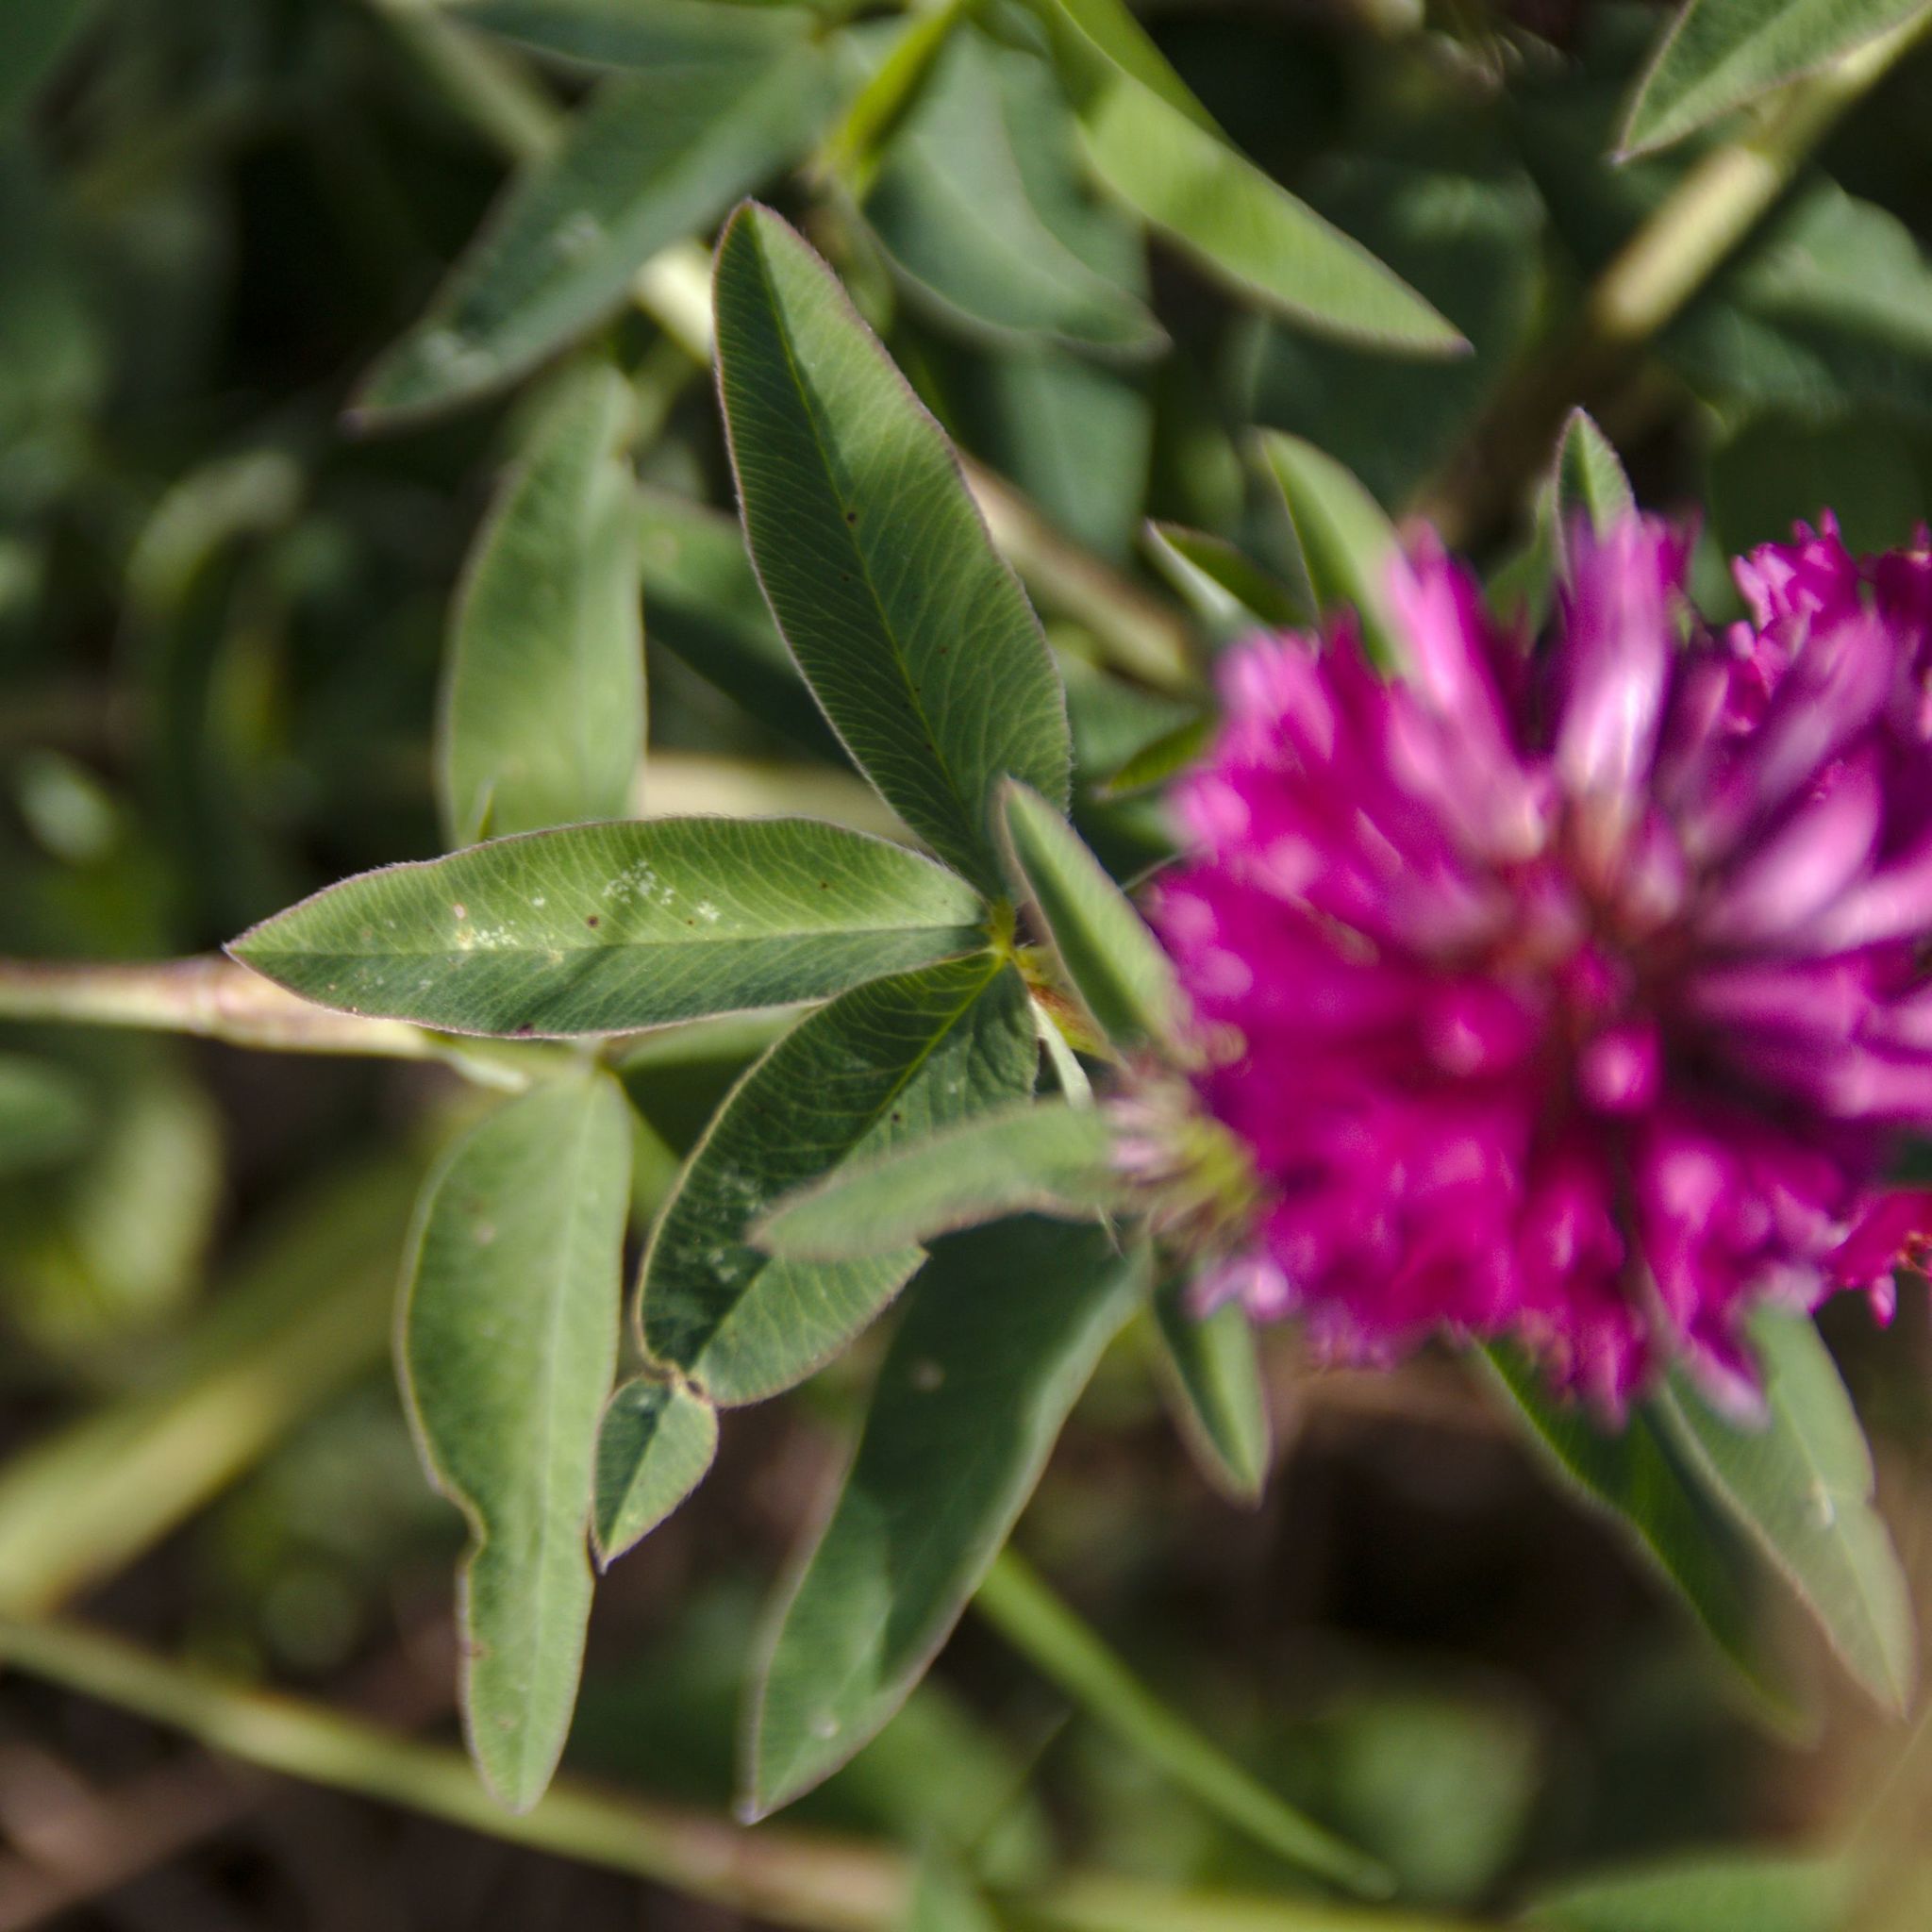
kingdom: Plantae
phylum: Tracheophyta
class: Magnoliopsida
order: Fabales
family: Fabaceae
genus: Trifolium
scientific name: Trifolium medium
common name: Zigzag clover
